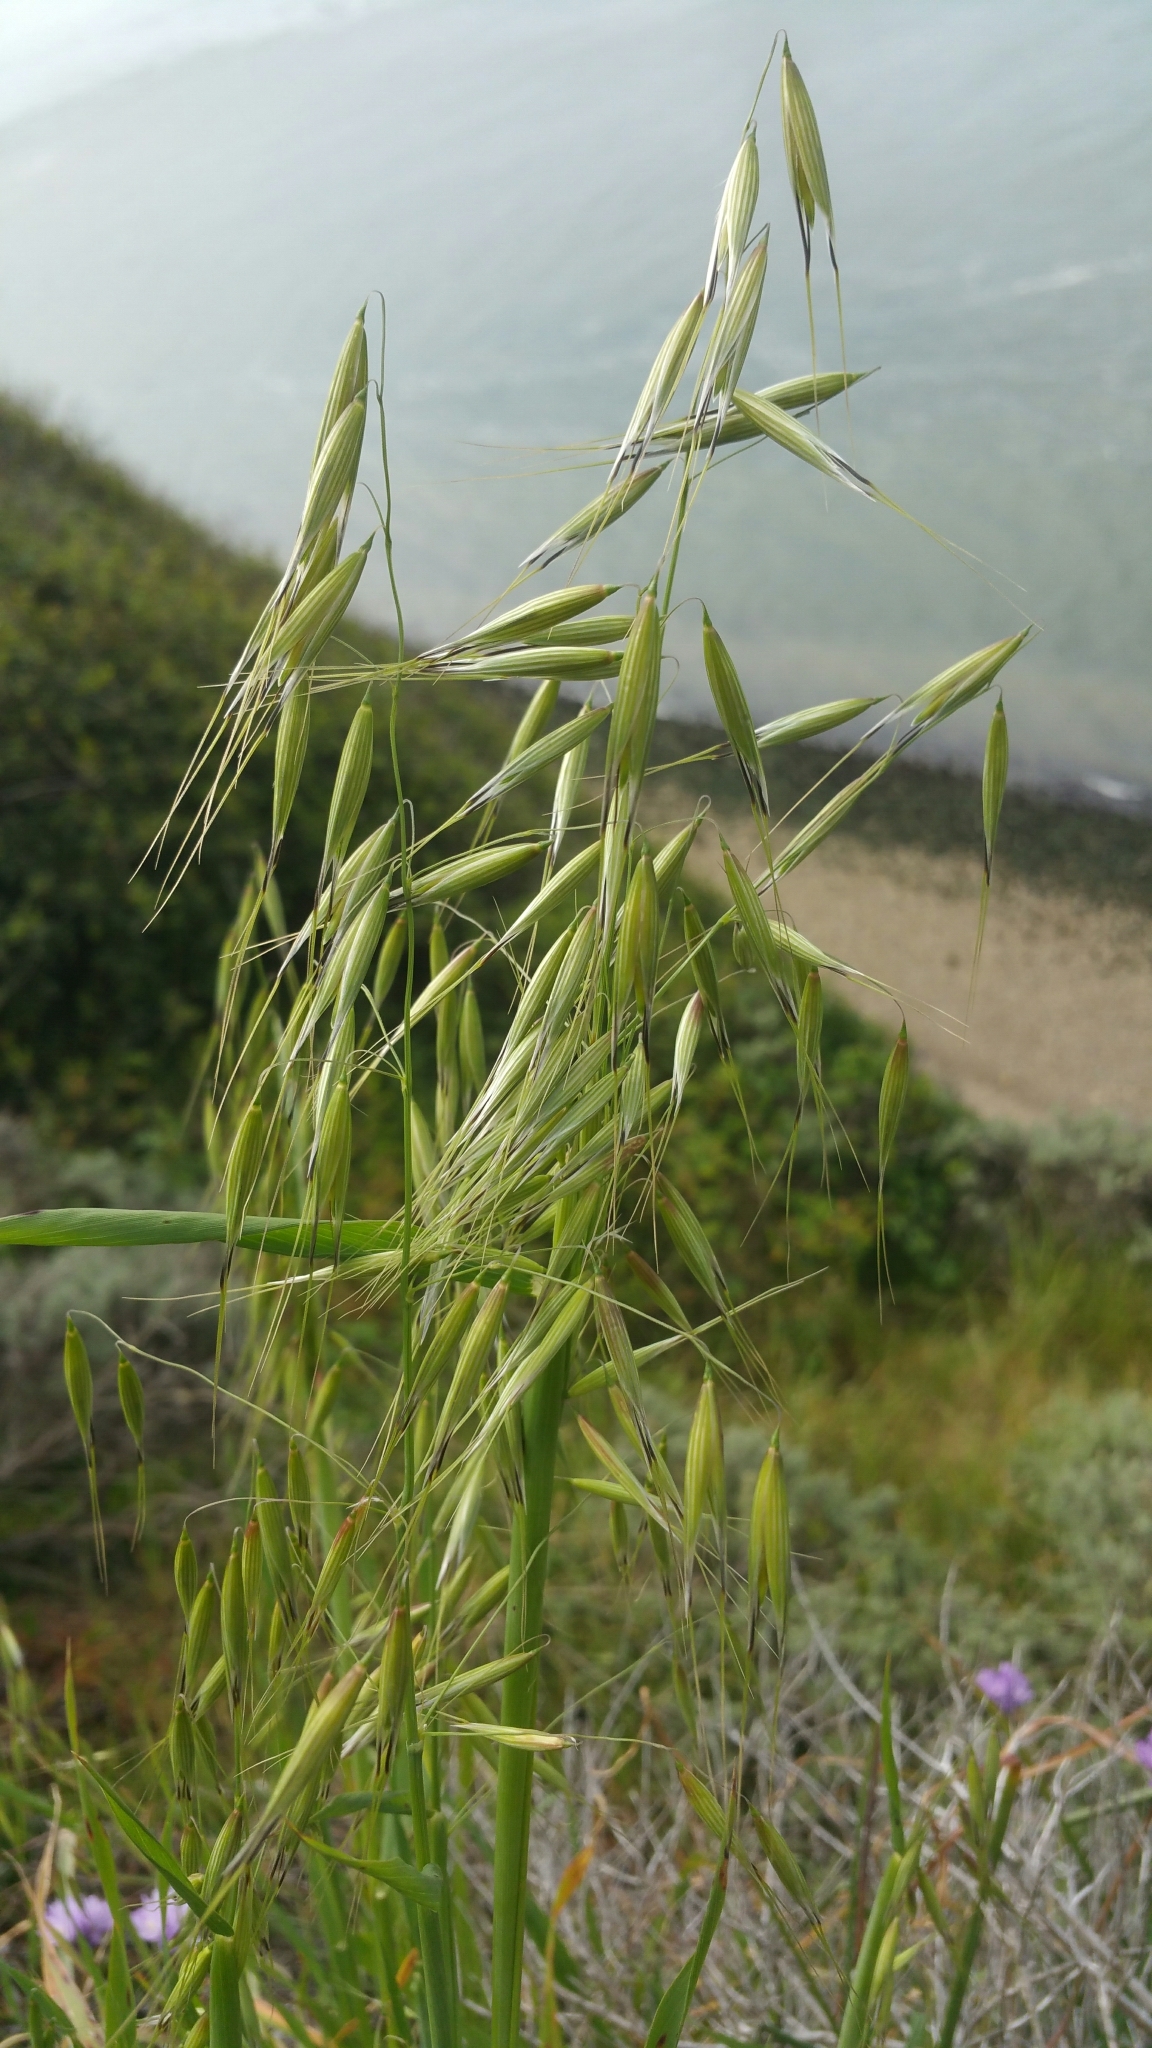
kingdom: Plantae
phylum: Tracheophyta
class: Liliopsida
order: Poales
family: Poaceae
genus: Avena
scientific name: Avena fatua
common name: Wild oat
